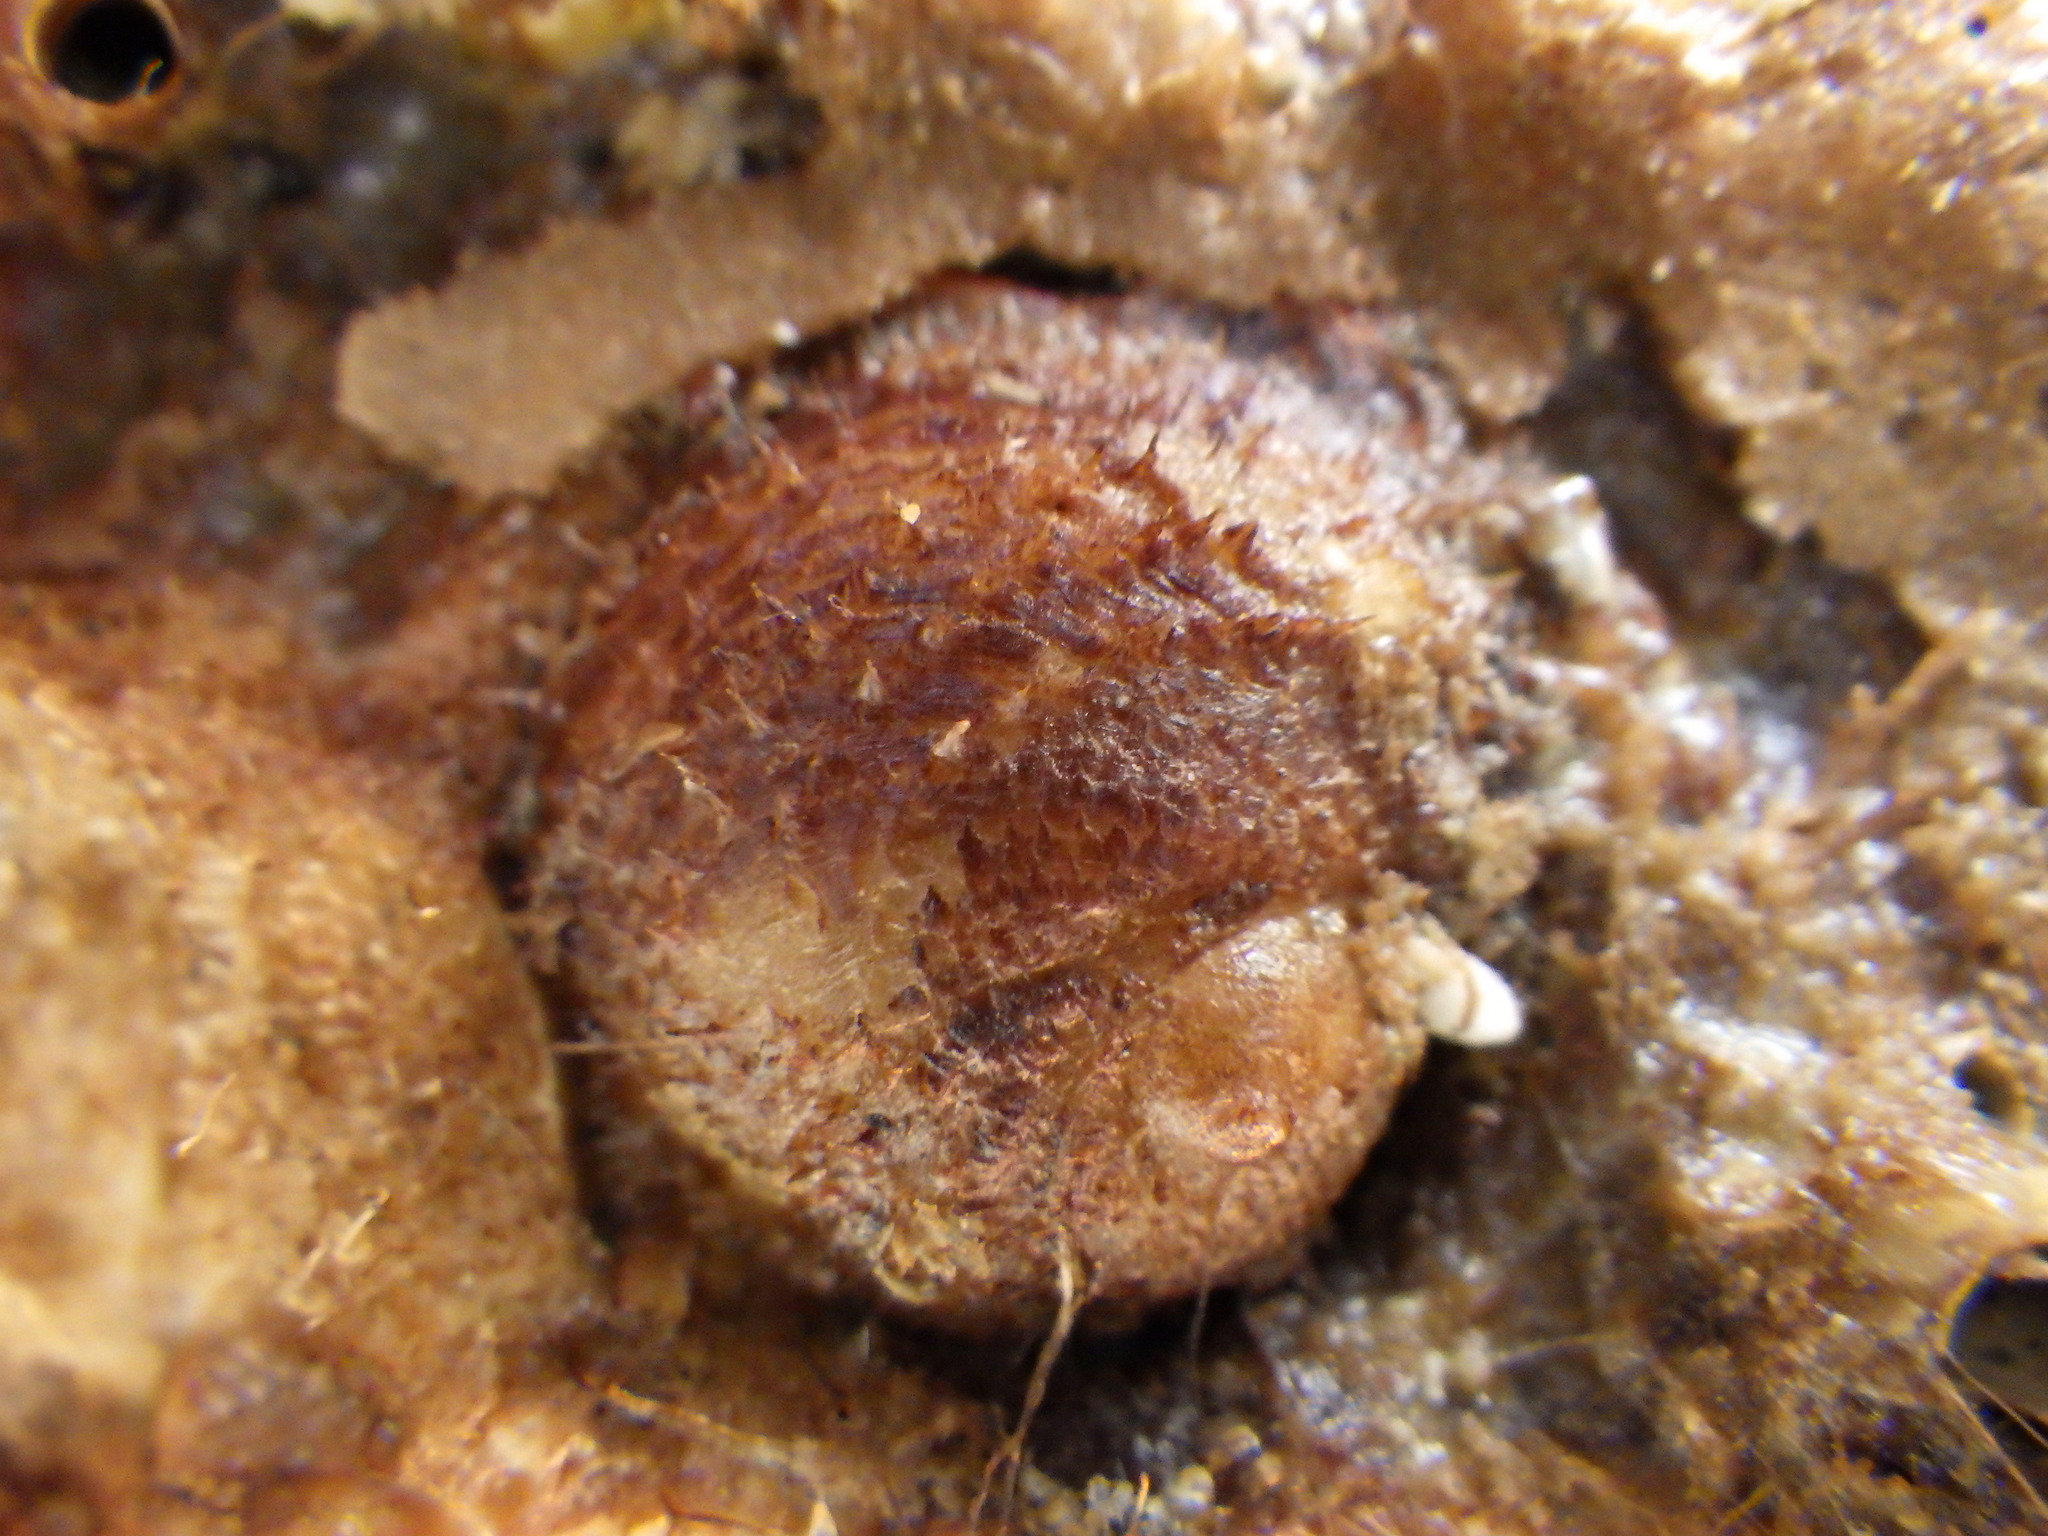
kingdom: Animalia
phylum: Mollusca
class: Gastropoda
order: Littorinimorpha
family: Calyptraeidae
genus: Sigapatella
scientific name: Sigapatella novaezelandiae
